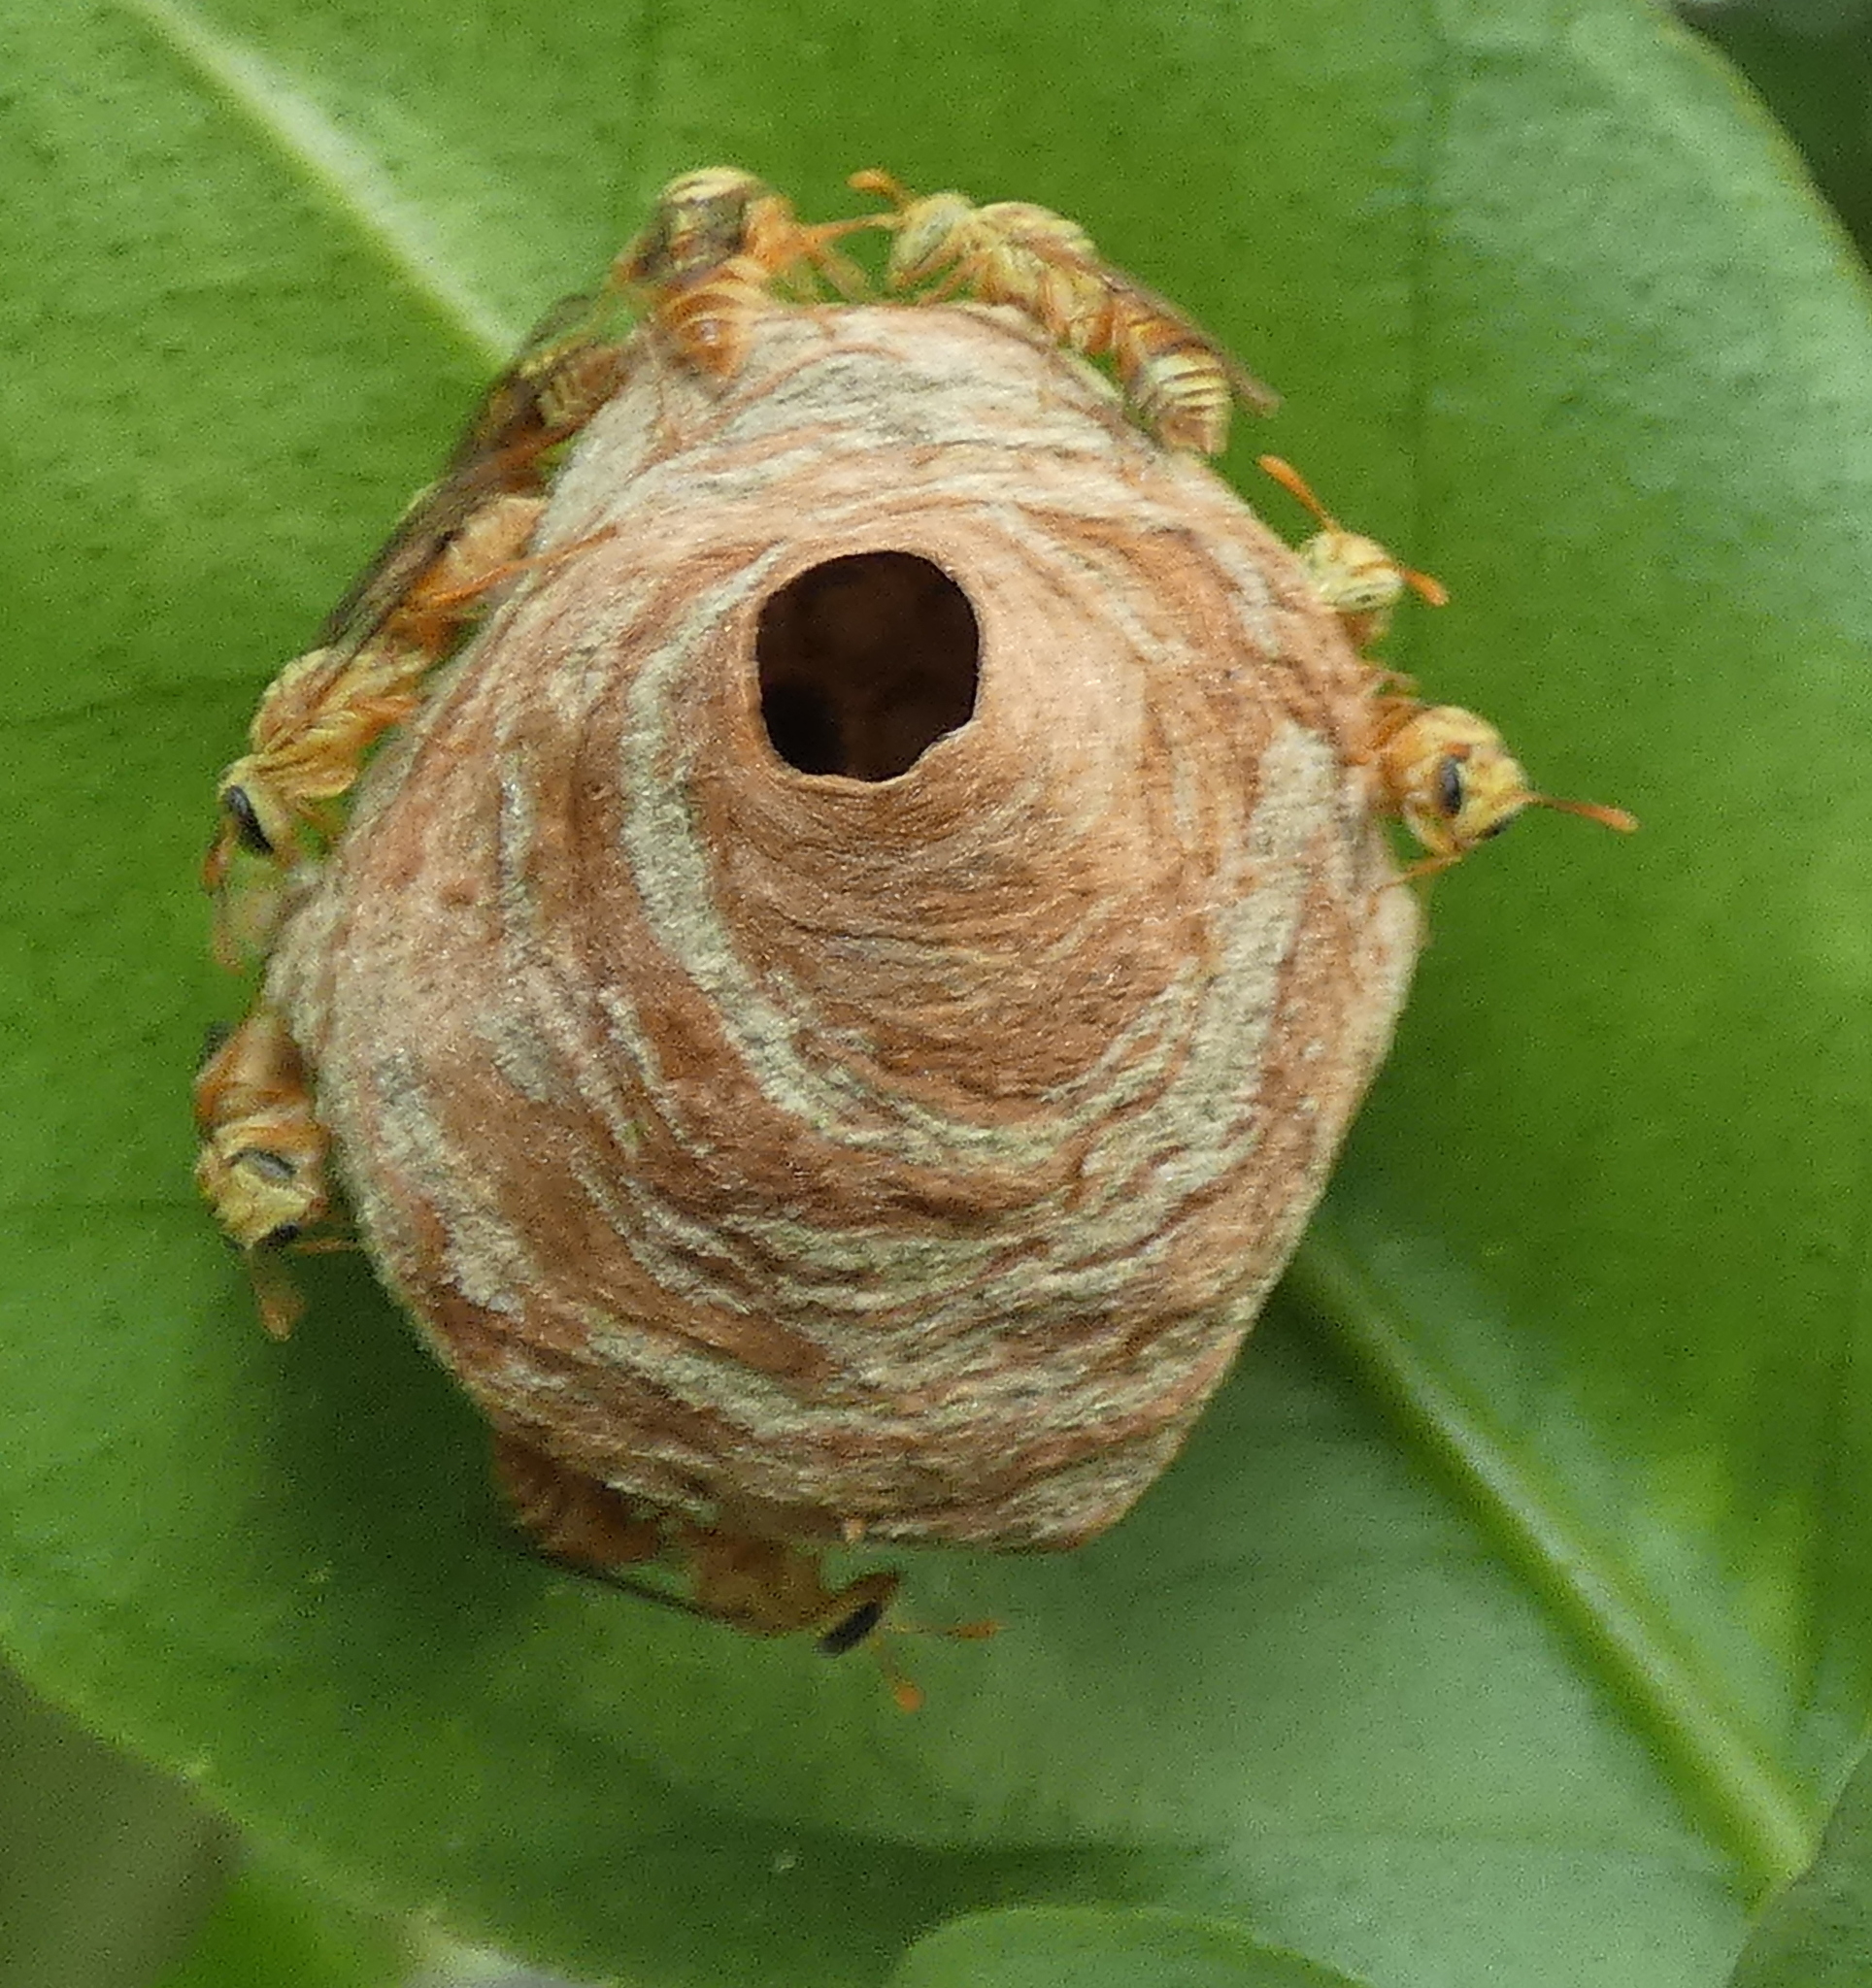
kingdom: Animalia
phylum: Arthropoda
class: Insecta
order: Hymenoptera
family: Vespidae
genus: Protopolybia
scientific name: Protopolybia potiguara
